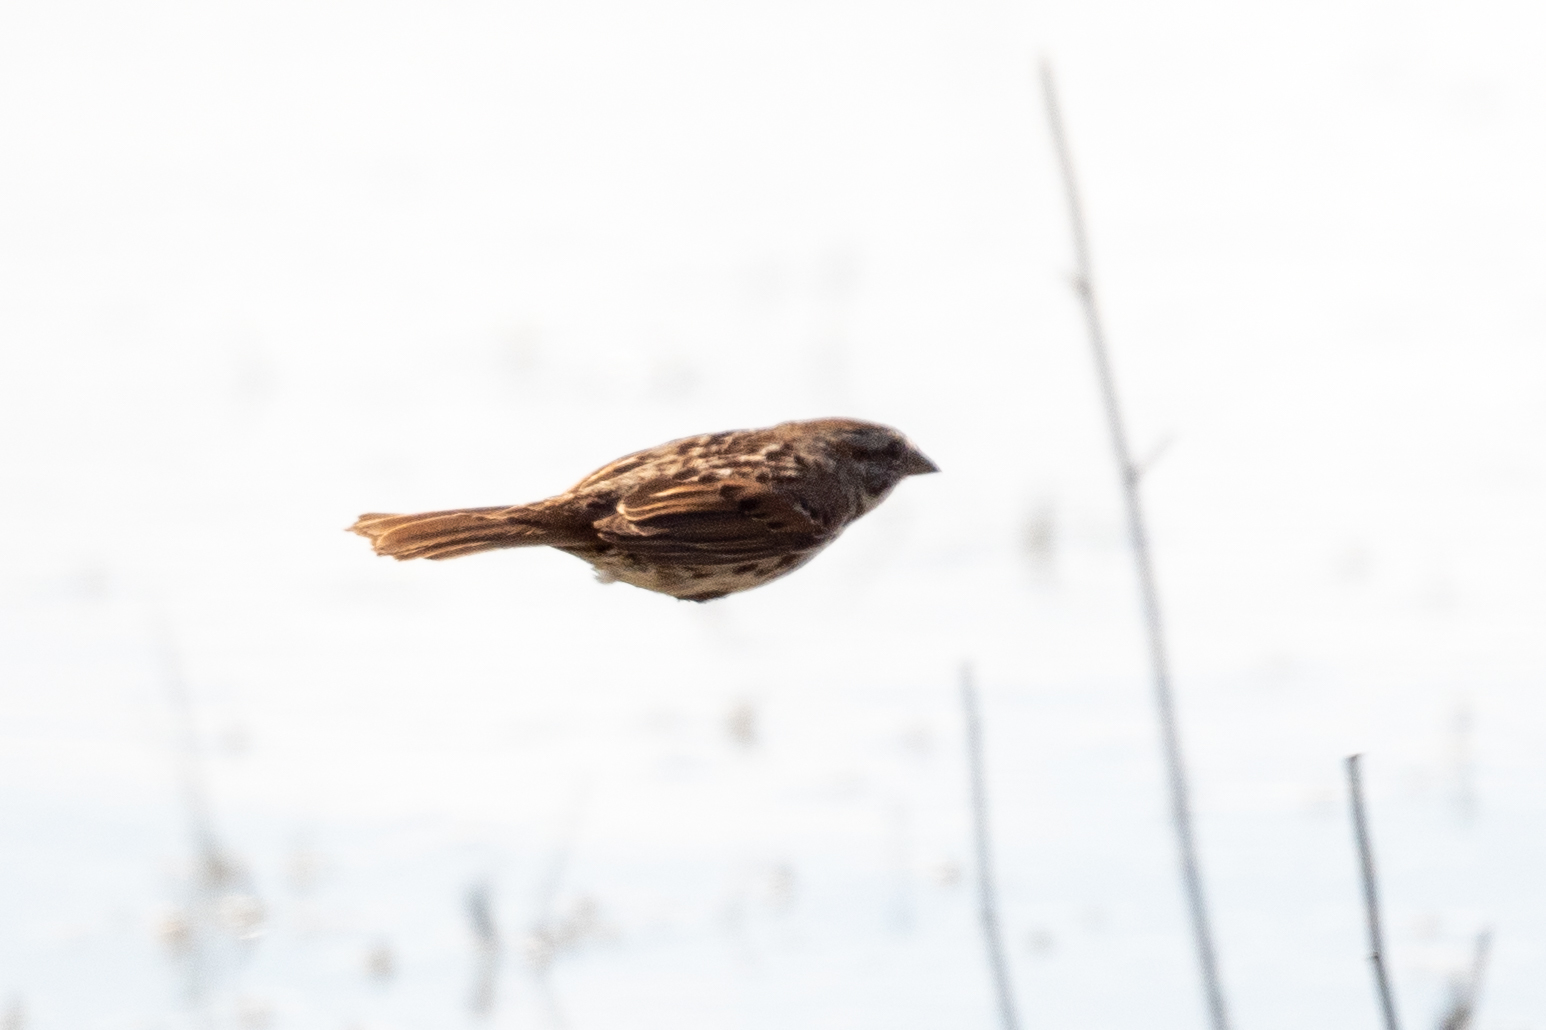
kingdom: Animalia
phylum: Chordata
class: Aves
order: Passeriformes
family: Passerellidae
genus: Melospiza
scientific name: Melospiza melodia
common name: Song sparrow
